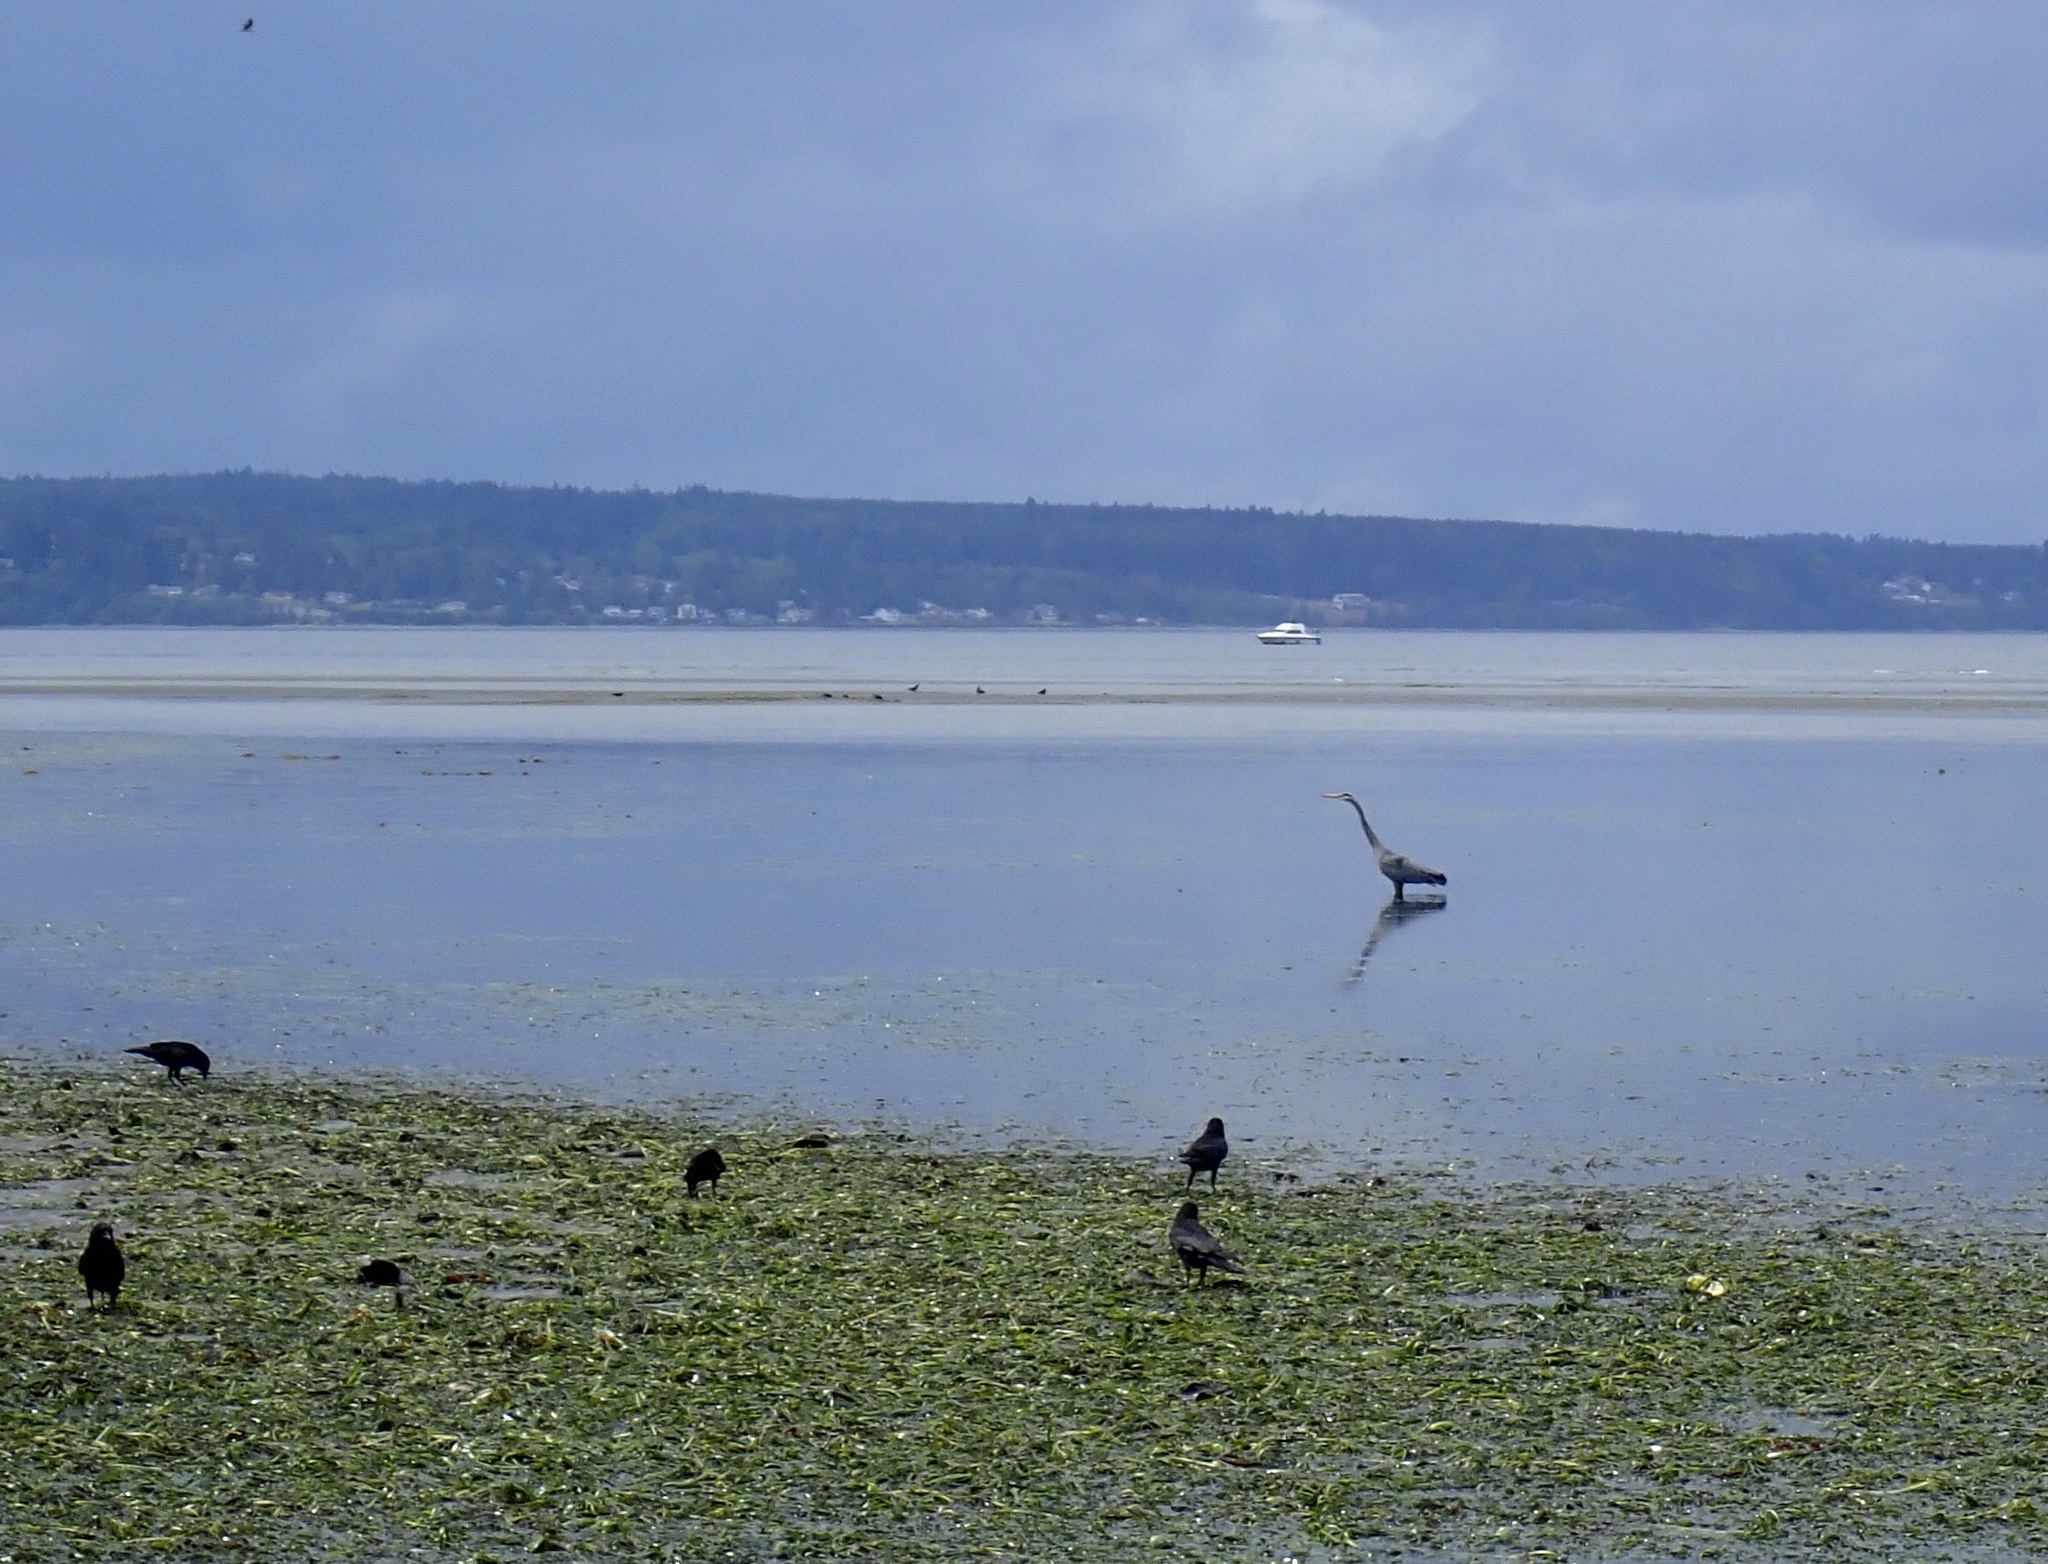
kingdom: Animalia
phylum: Chordata
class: Aves
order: Passeriformes
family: Corvidae
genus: Corvus
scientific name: Corvus brachyrhynchos
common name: American crow
